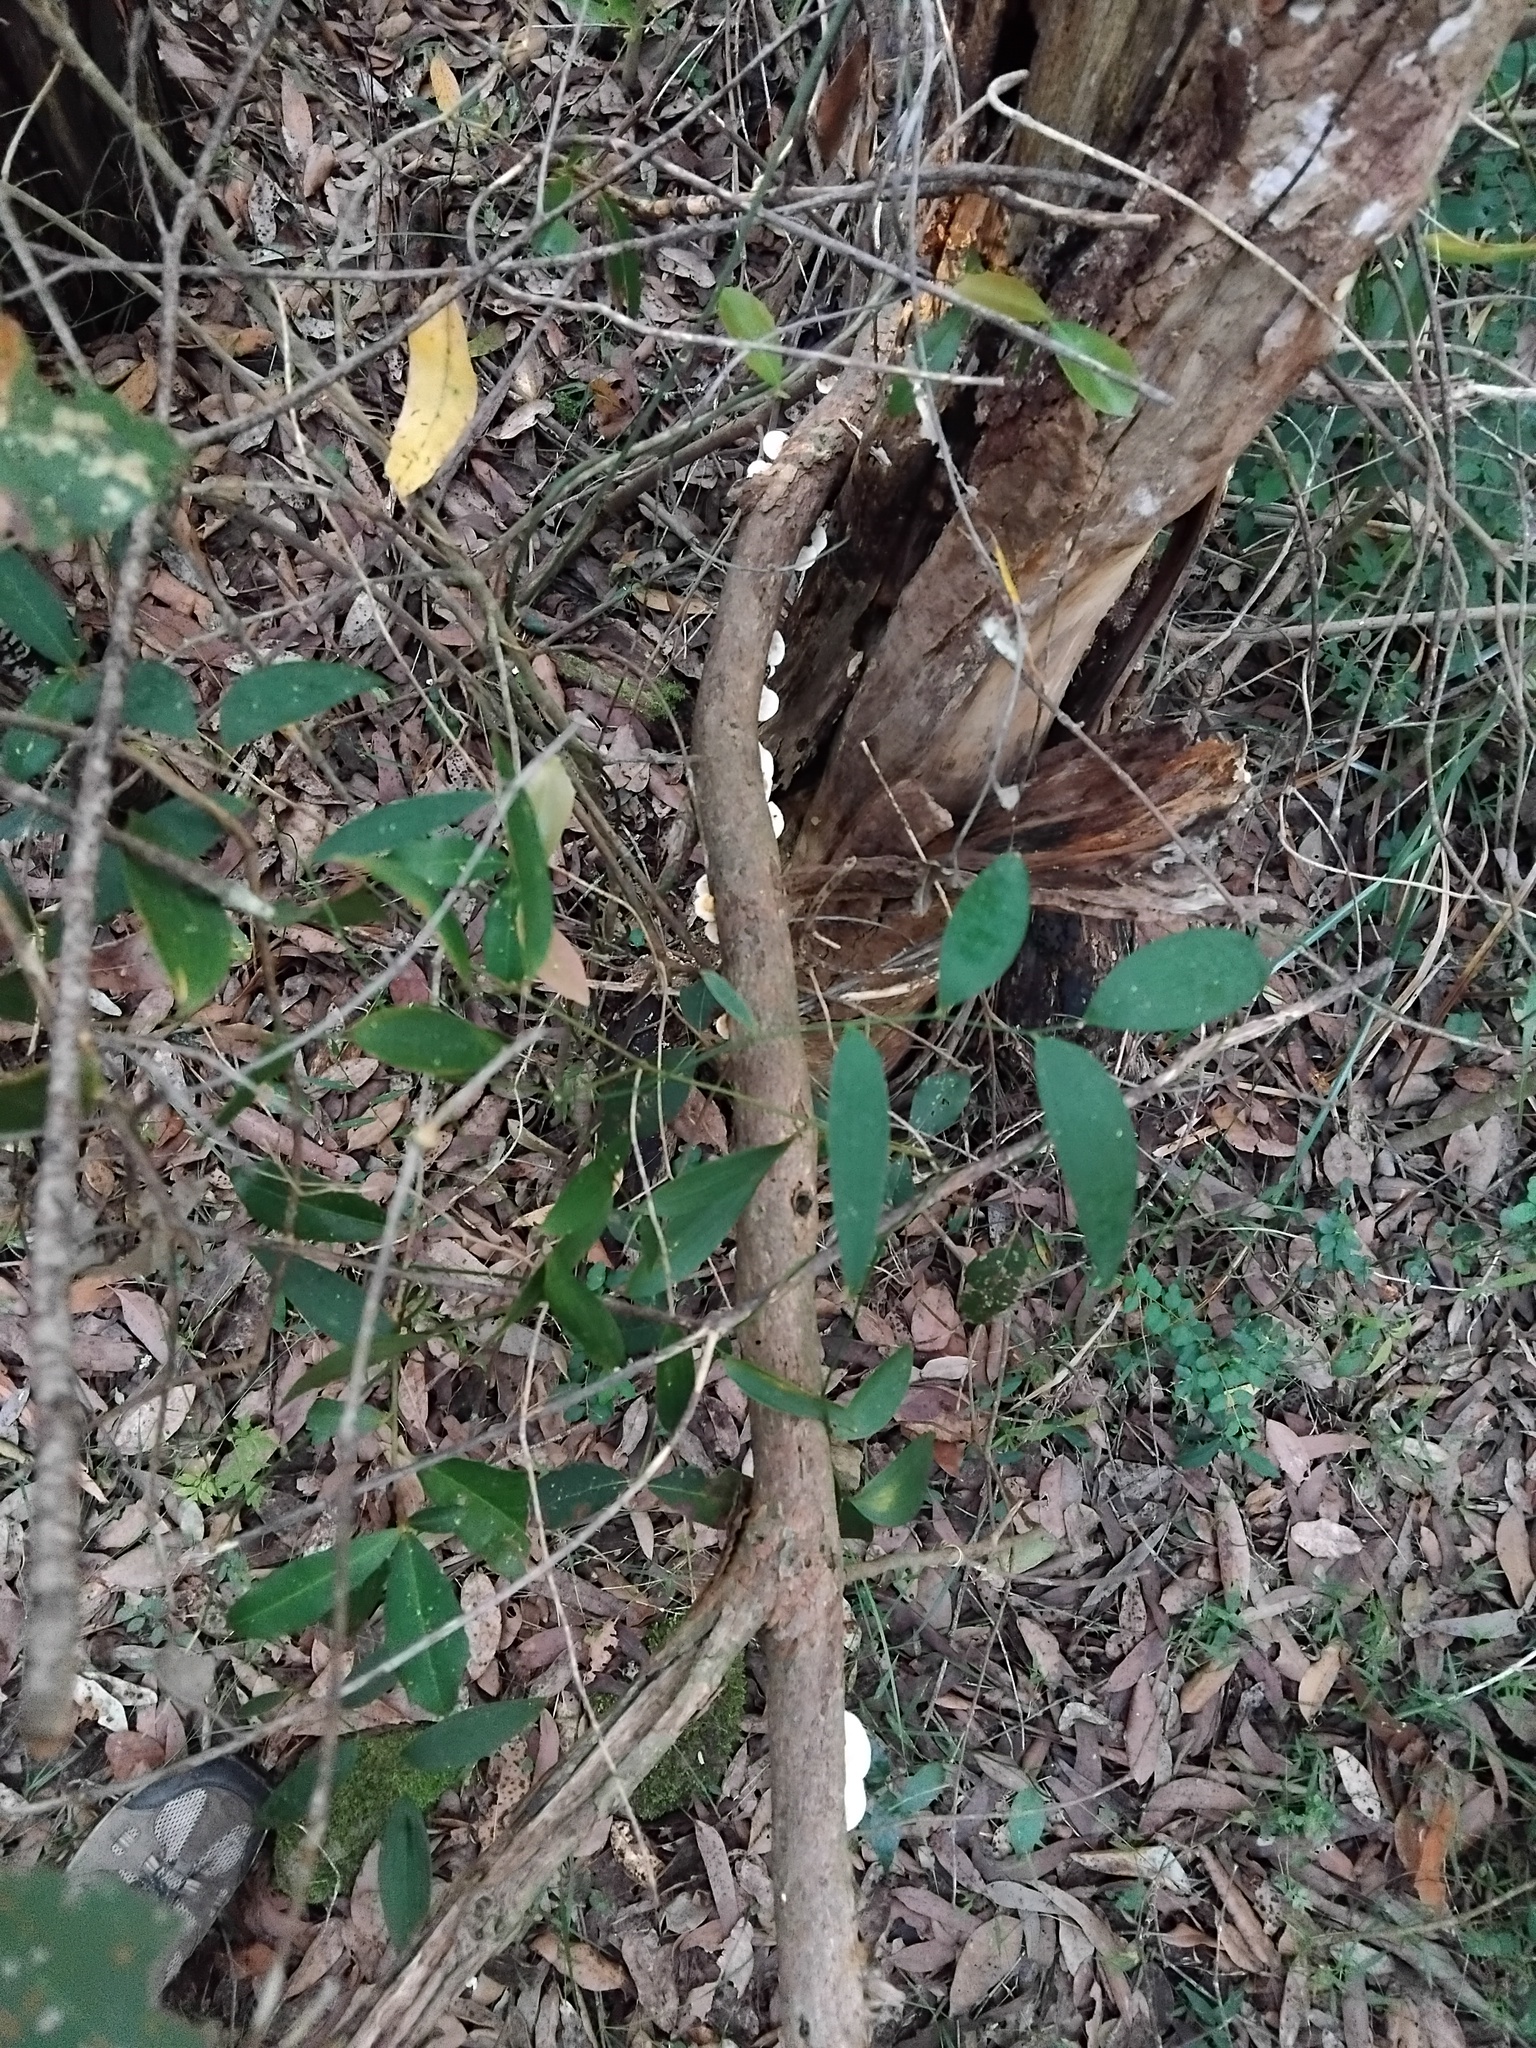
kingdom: Fungi
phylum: Basidiomycota
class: Agaricomycetes
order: Polyporales
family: Polyporaceae
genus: Truncospora
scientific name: Truncospora ochroleuca
